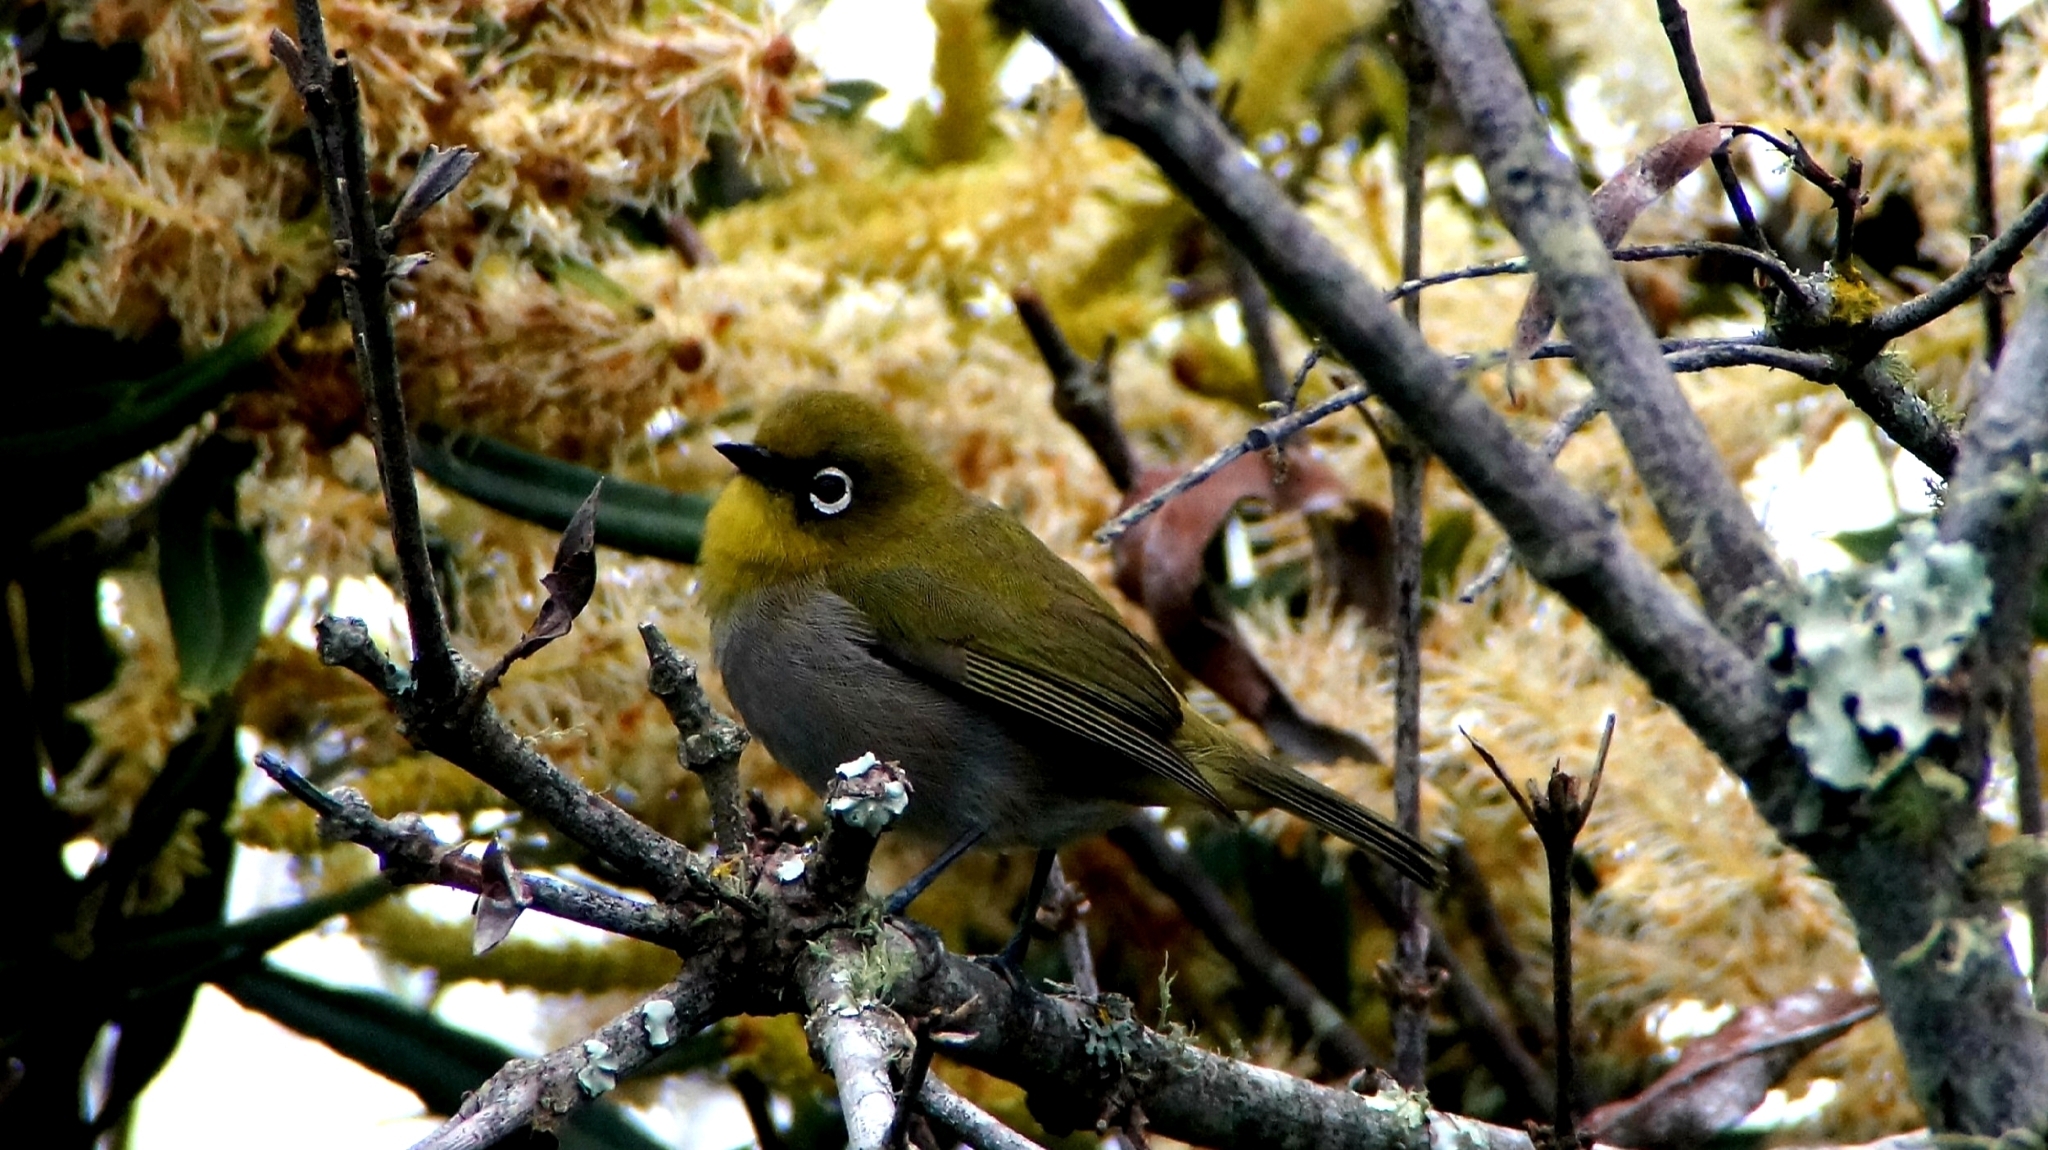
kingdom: Animalia
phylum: Chordata
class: Aves
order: Passeriformes
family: Zosteropidae
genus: Zosterops
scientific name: Zosterops virens
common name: Cape white-eye
